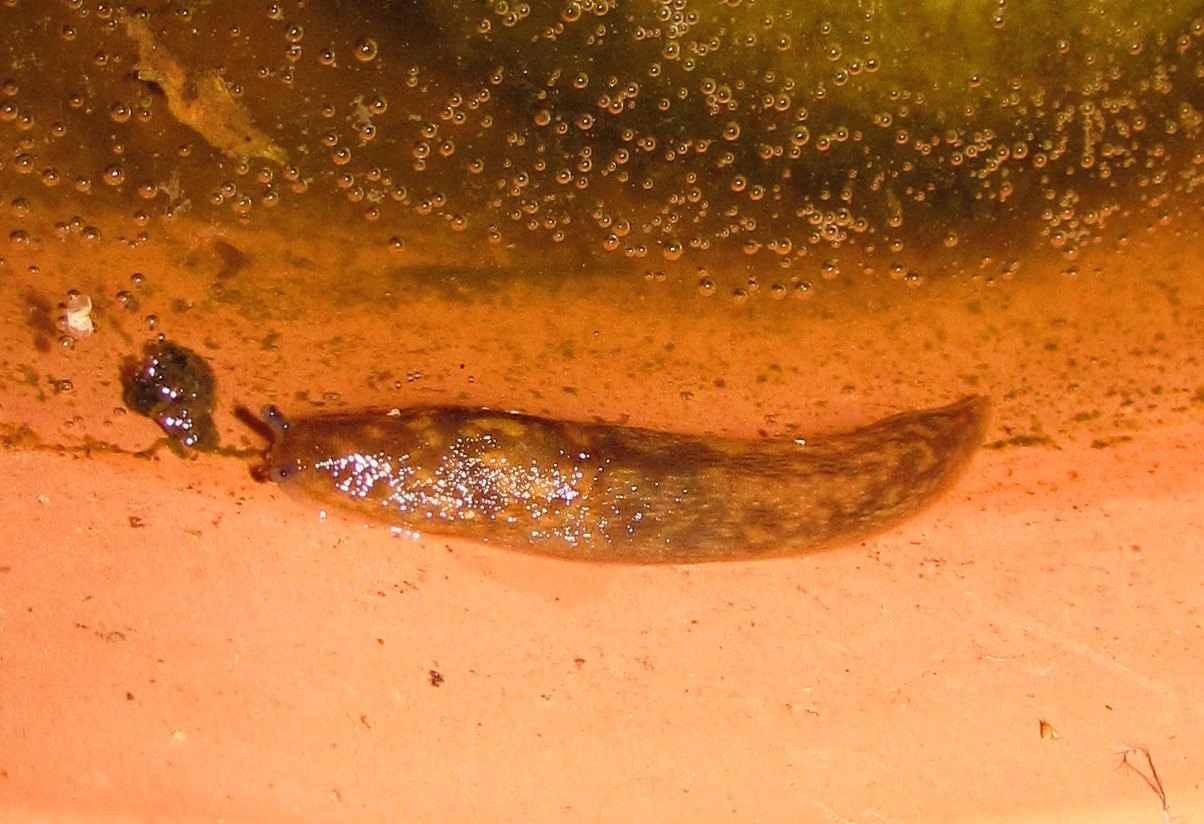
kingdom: Animalia
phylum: Mollusca
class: Gastropoda
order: Stylommatophora
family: Limacidae
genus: Limacus
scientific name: Limacus maculatus
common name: Irish yellow slug
